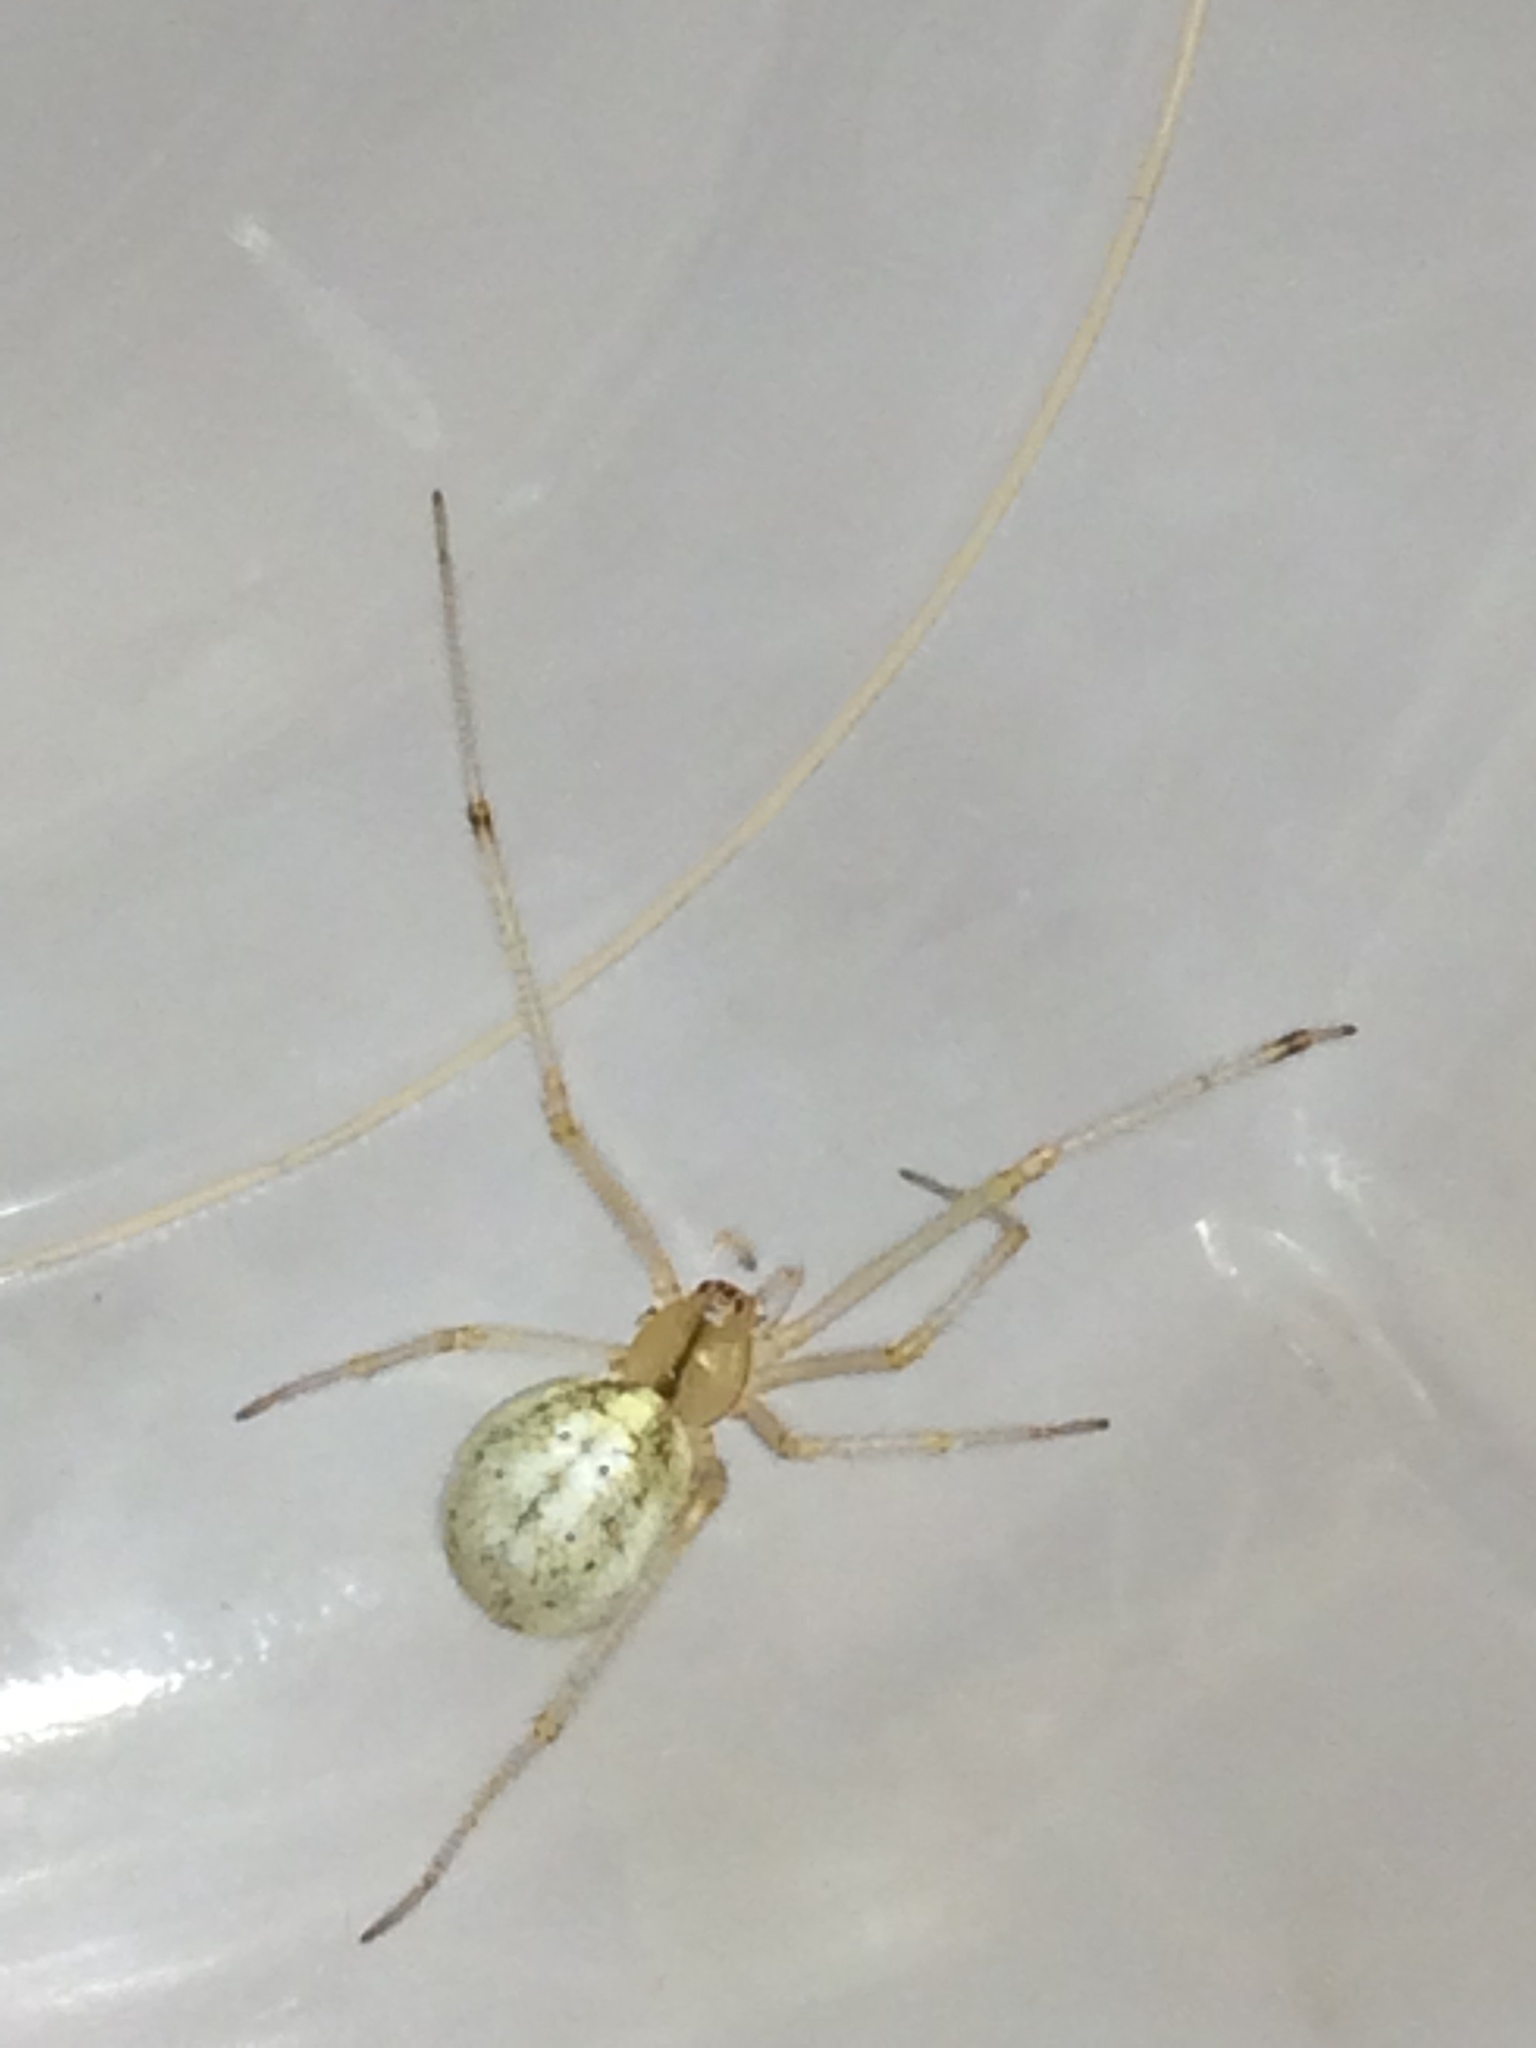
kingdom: Animalia
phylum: Arthropoda
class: Arachnida
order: Araneae
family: Theridiidae
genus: Enoplognatha
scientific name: Enoplognatha ovata
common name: Common candy-striped spider
